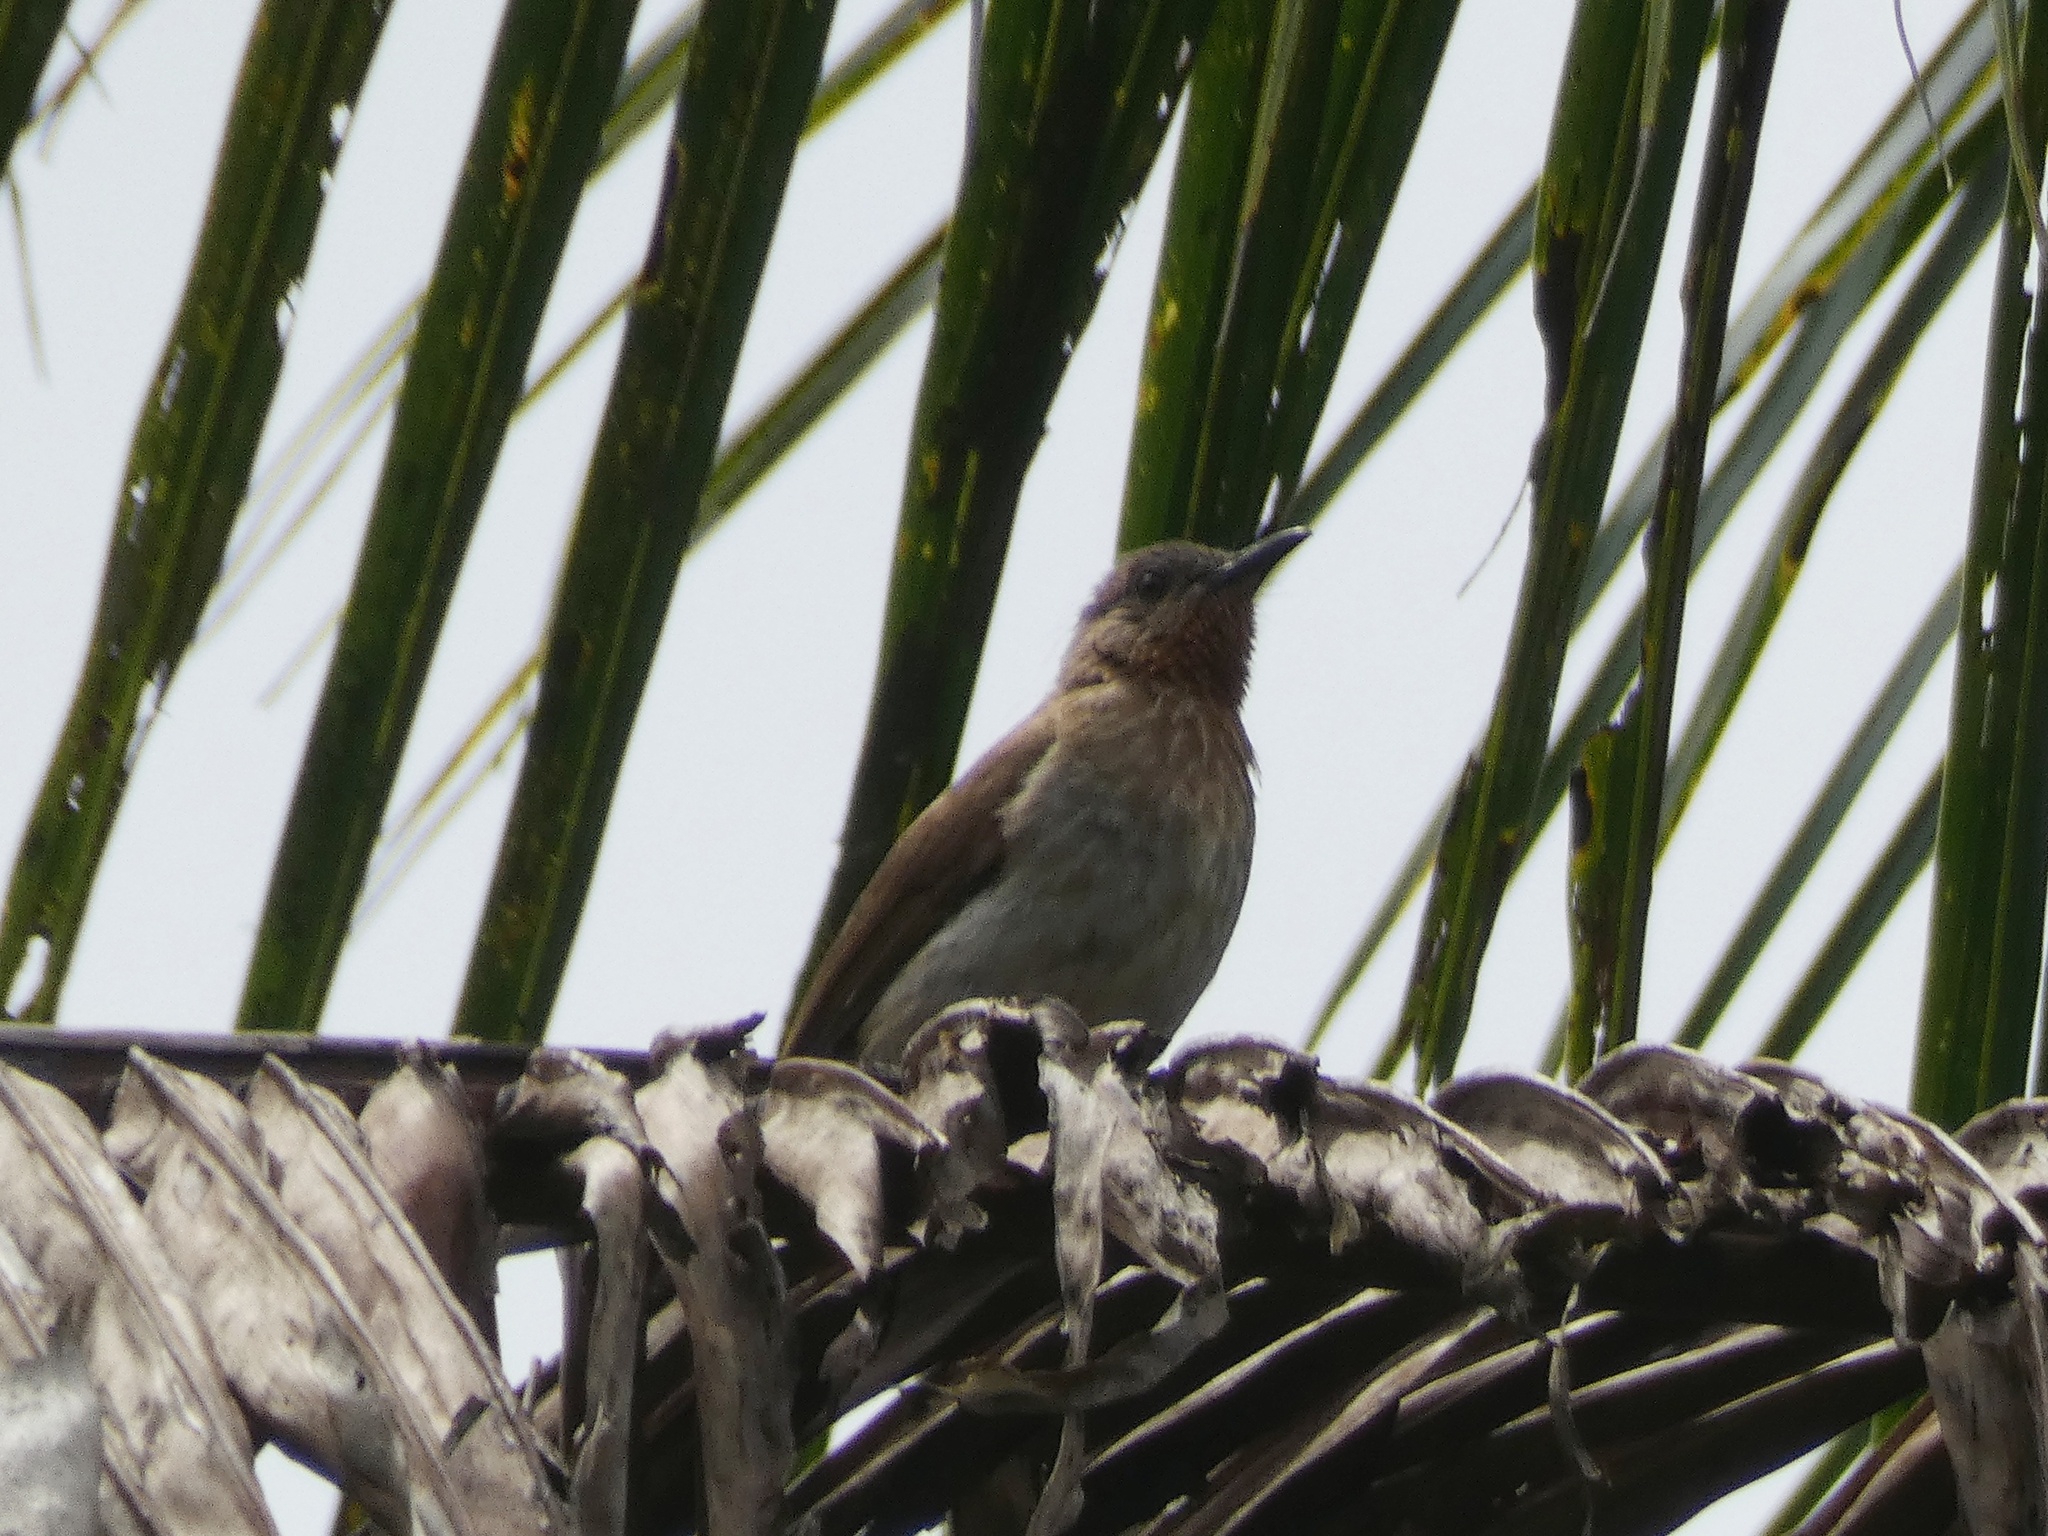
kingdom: Animalia
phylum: Chordata
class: Aves
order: Passeriformes
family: Pycnonotidae
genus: Hypsipetes
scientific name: Hypsipetes philippinus
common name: Philippine bulbul
